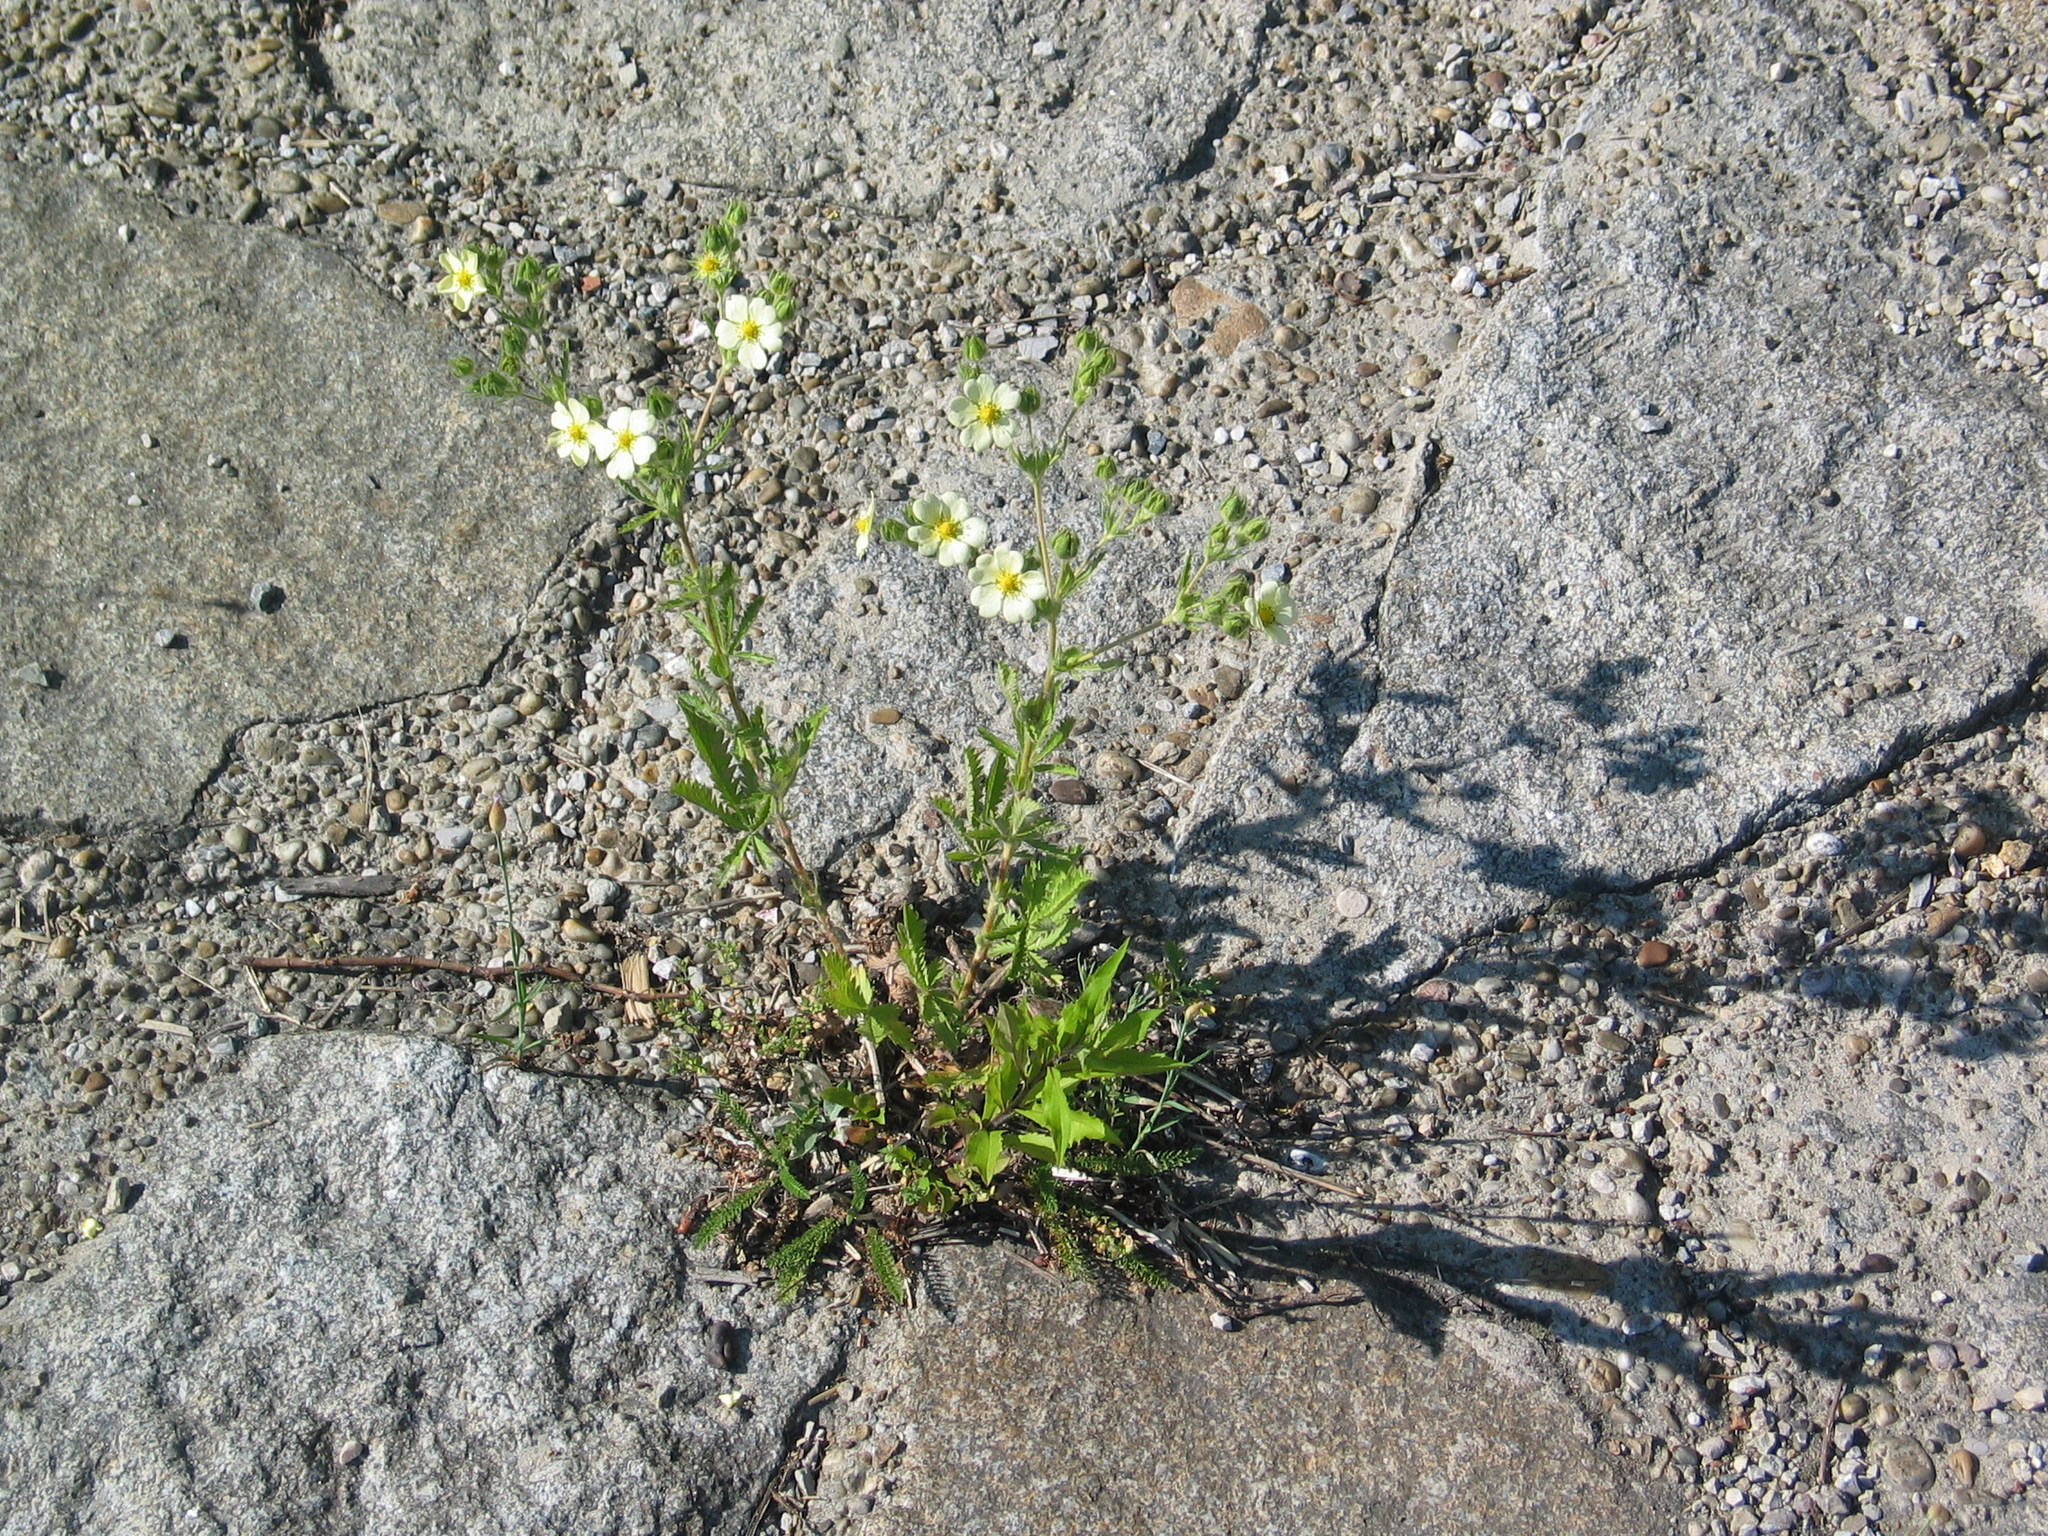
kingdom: Plantae
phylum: Tracheophyta
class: Magnoliopsida
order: Rosales
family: Rosaceae
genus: Potentilla
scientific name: Potentilla recta
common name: Sulphur cinquefoil
